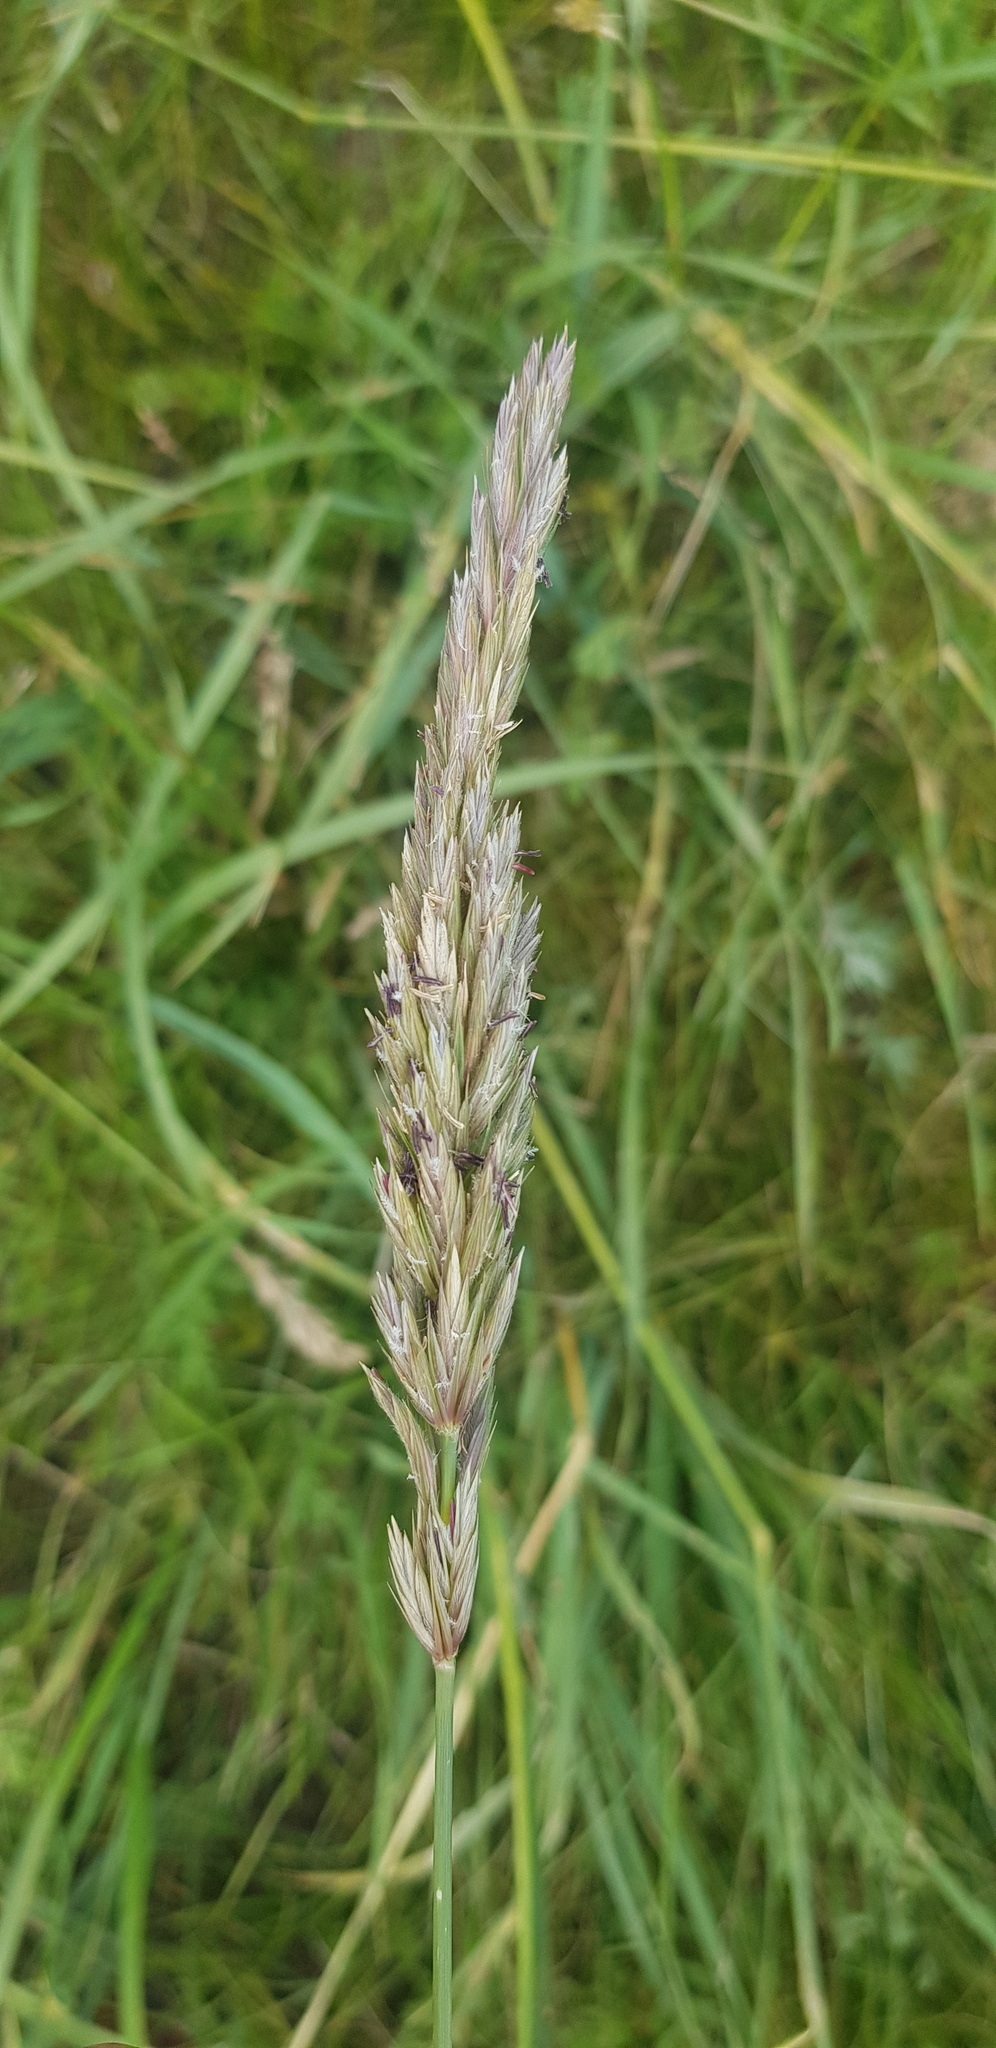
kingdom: Plantae
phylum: Tracheophyta
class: Liliopsida
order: Poales
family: Poaceae
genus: Elymus
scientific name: Elymus repens
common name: Quackgrass
